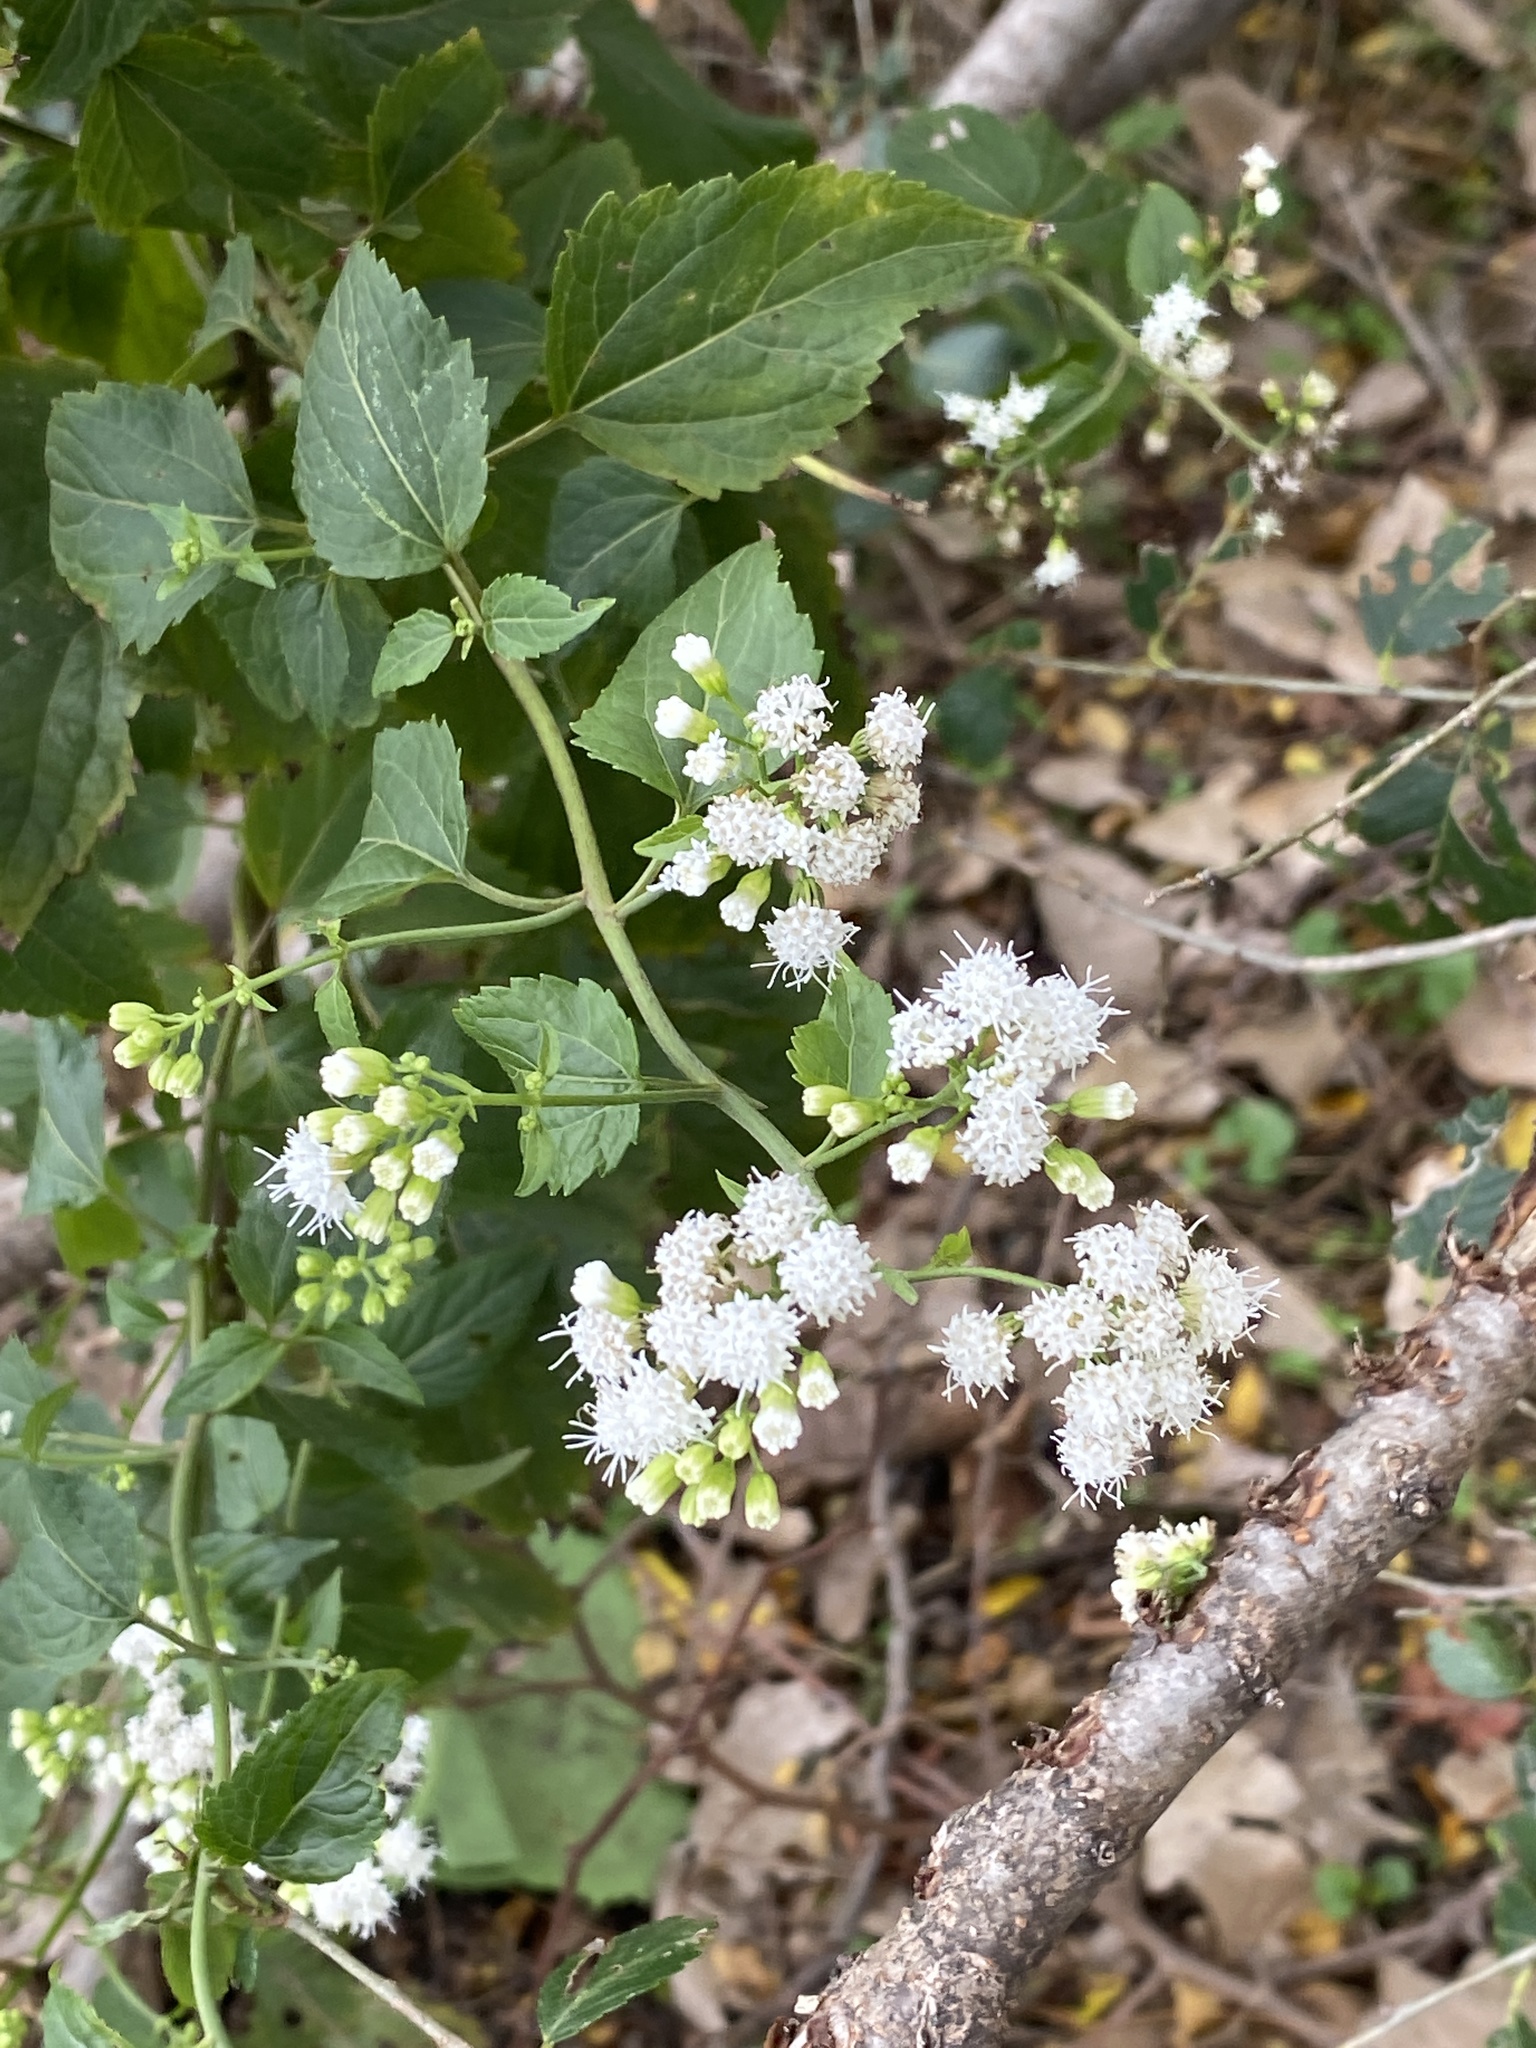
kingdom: Plantae
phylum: Tracheophyta
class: Magnoliopsida
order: Asterales
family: Asteraceae
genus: Ageratina
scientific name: Ageratina altissima
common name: White snakeroot
